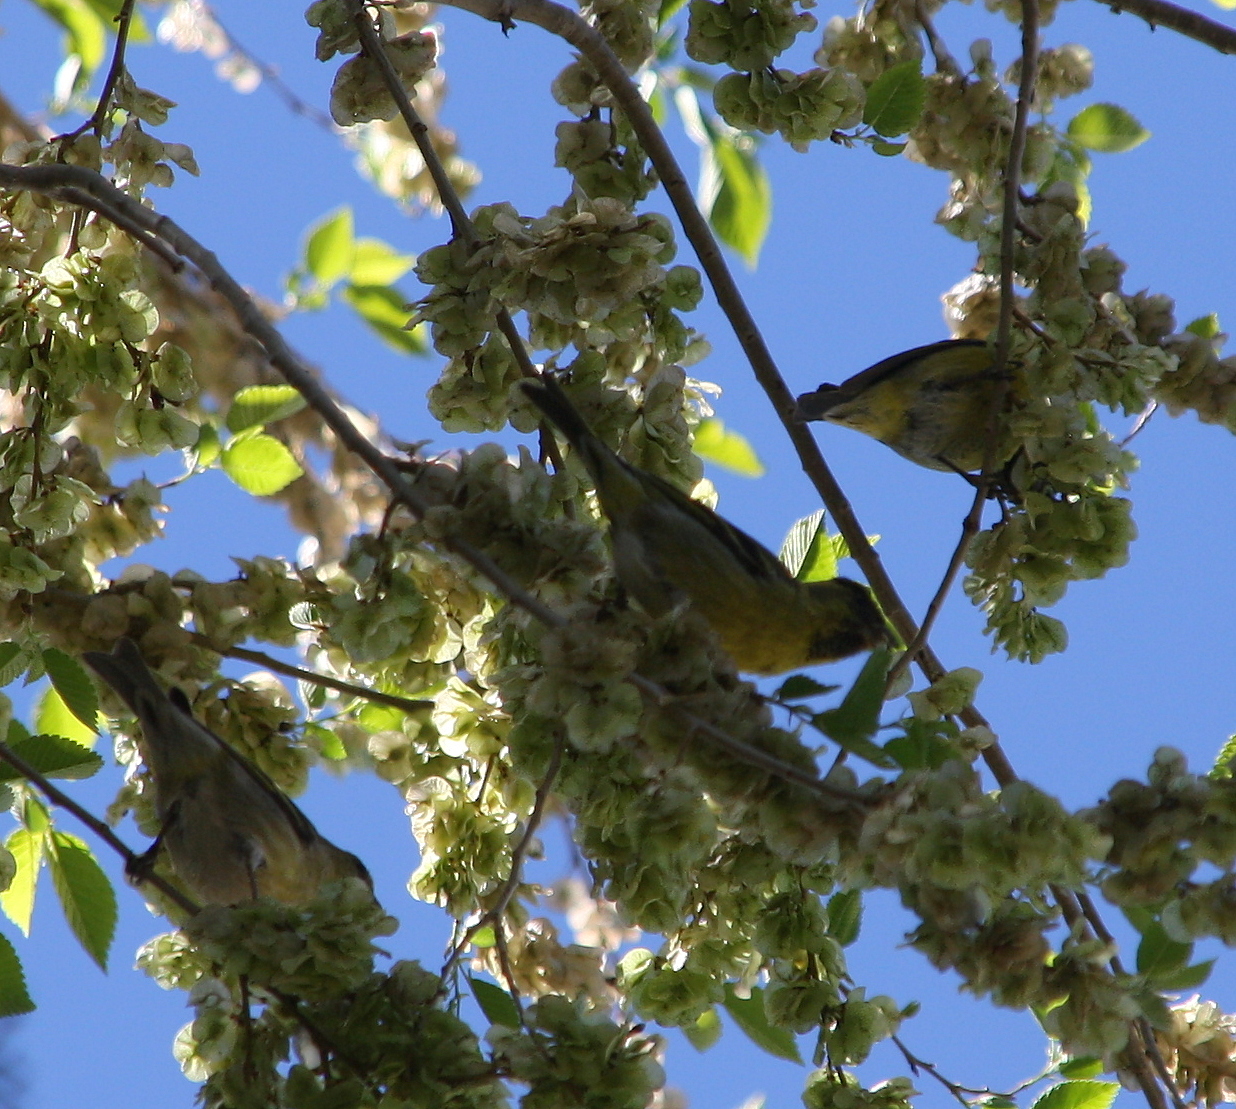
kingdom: Animalia
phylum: Chordata
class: Aves
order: Passeriformes
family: Fringillidae
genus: Spinus
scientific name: Spinus barbatus
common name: Black-chinned siskin
